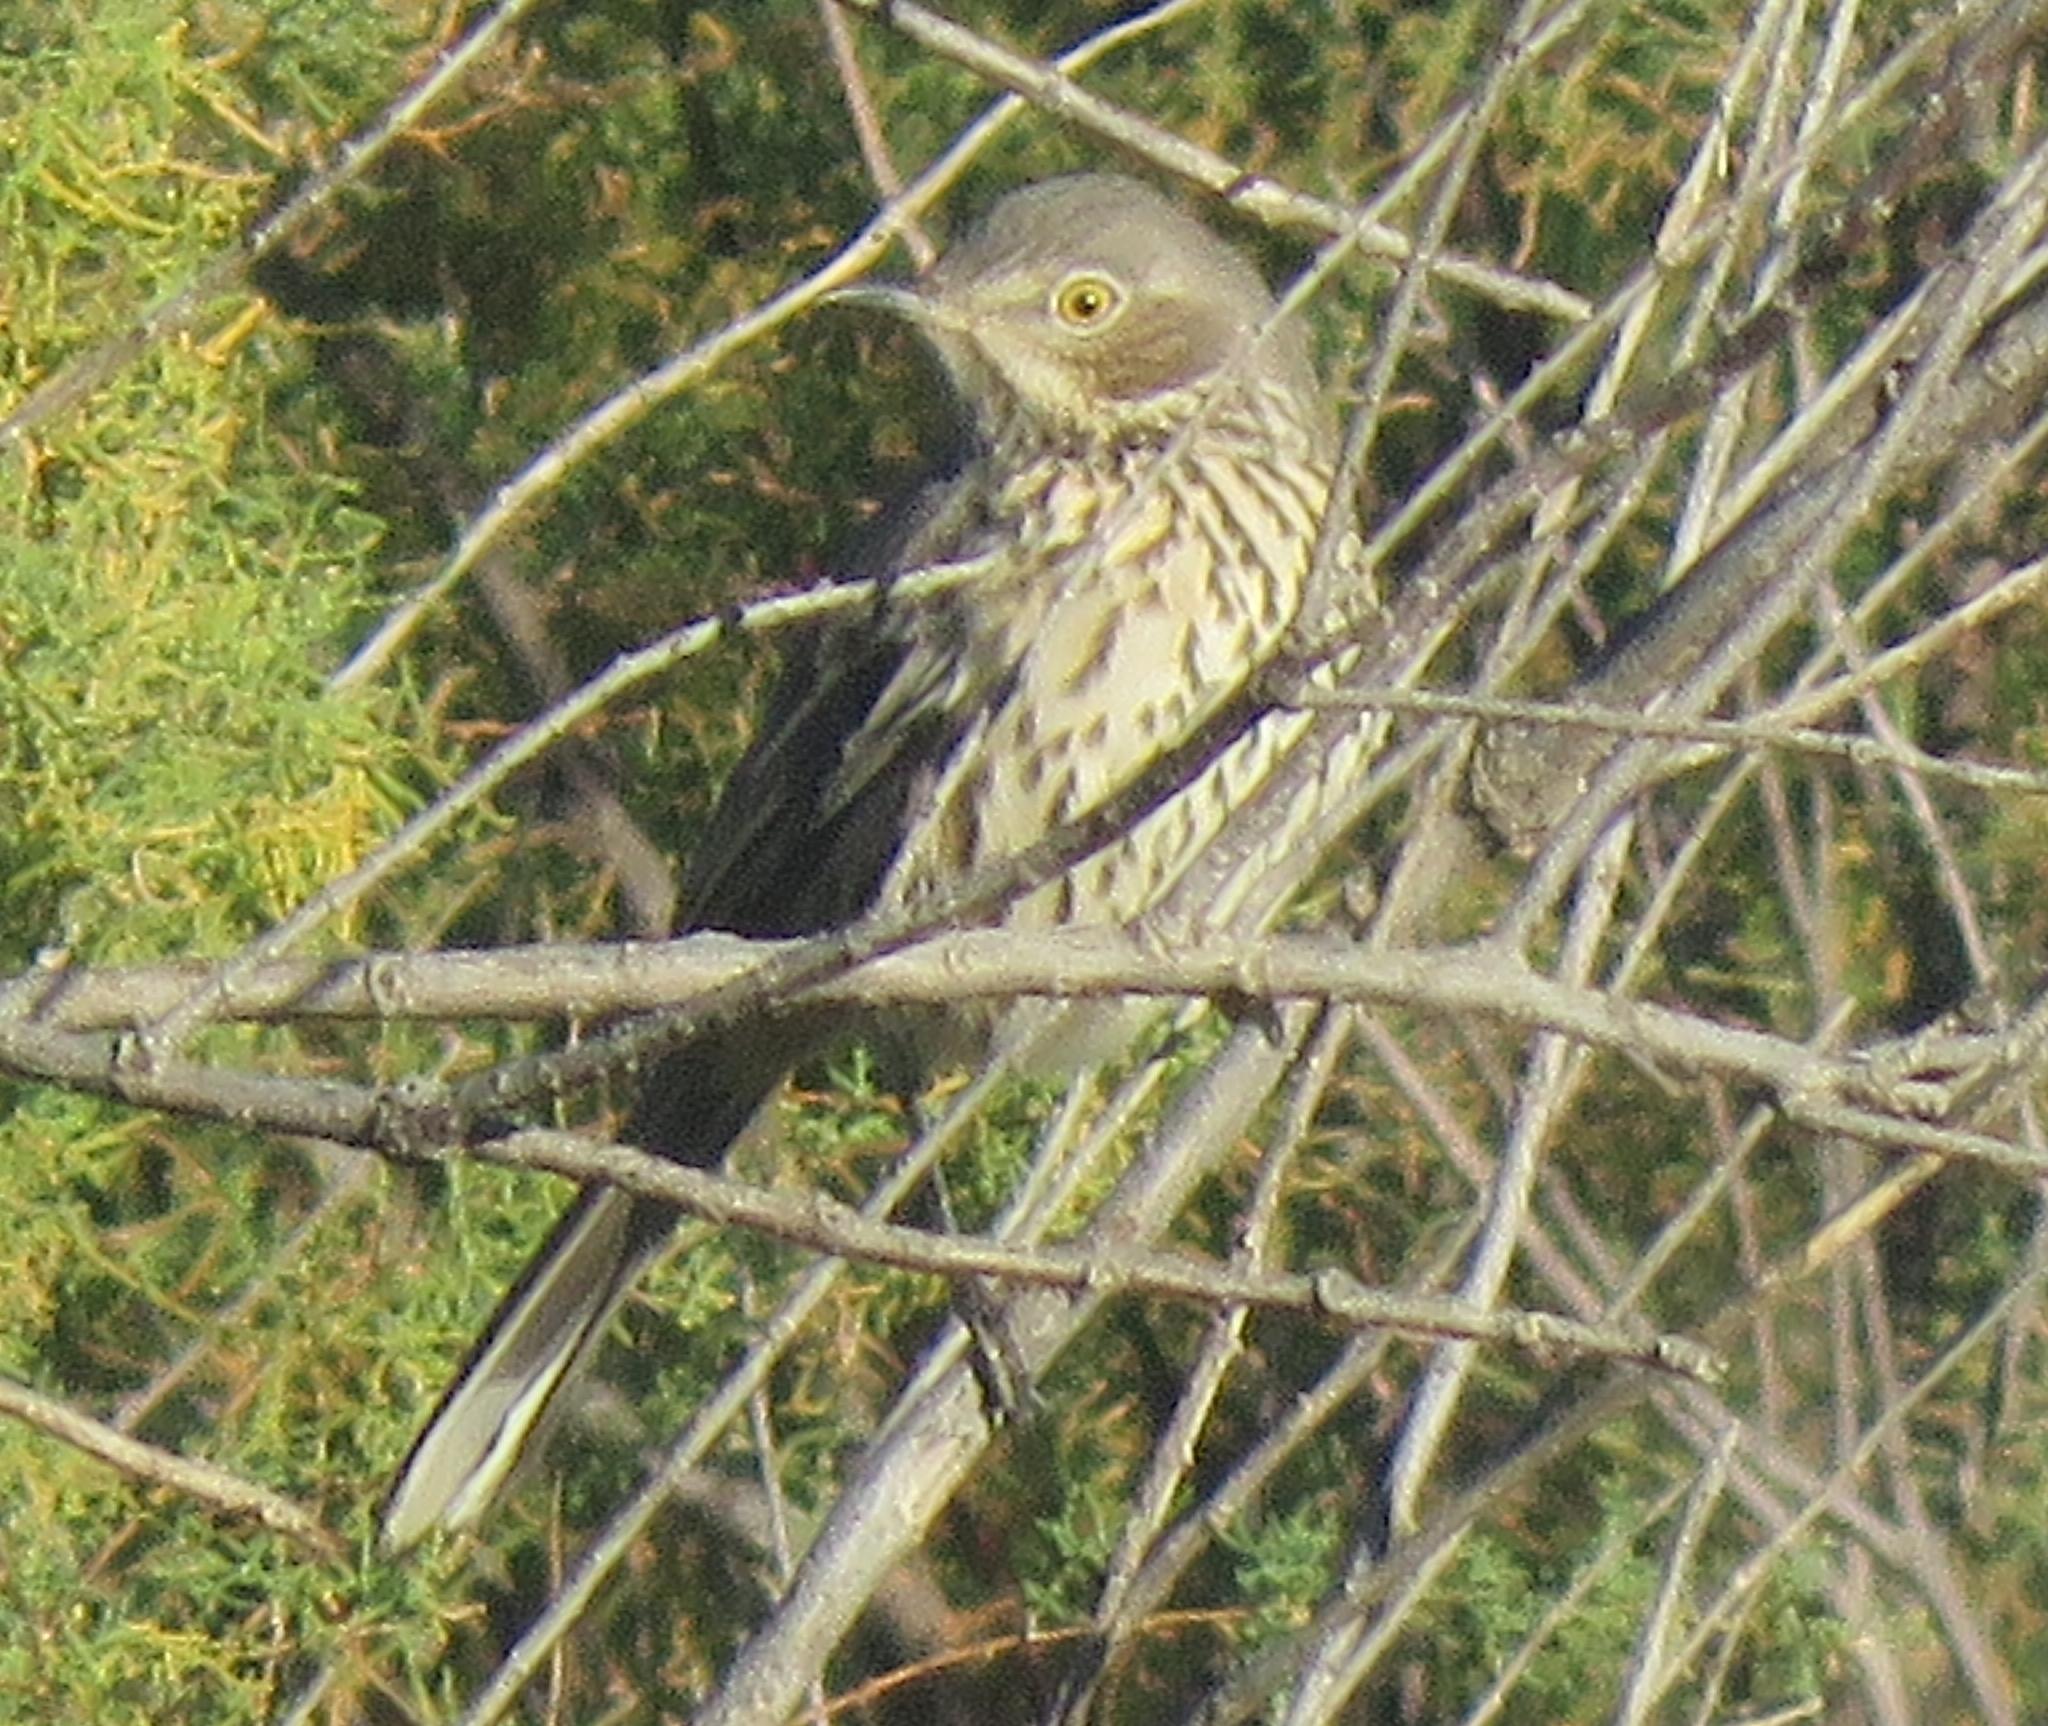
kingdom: Animalia
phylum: Chordata
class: Aves
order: Passeriformes
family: Mimidae
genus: Oreoscoptes
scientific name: Oreoscoptes montanus
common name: Sage thrasher
